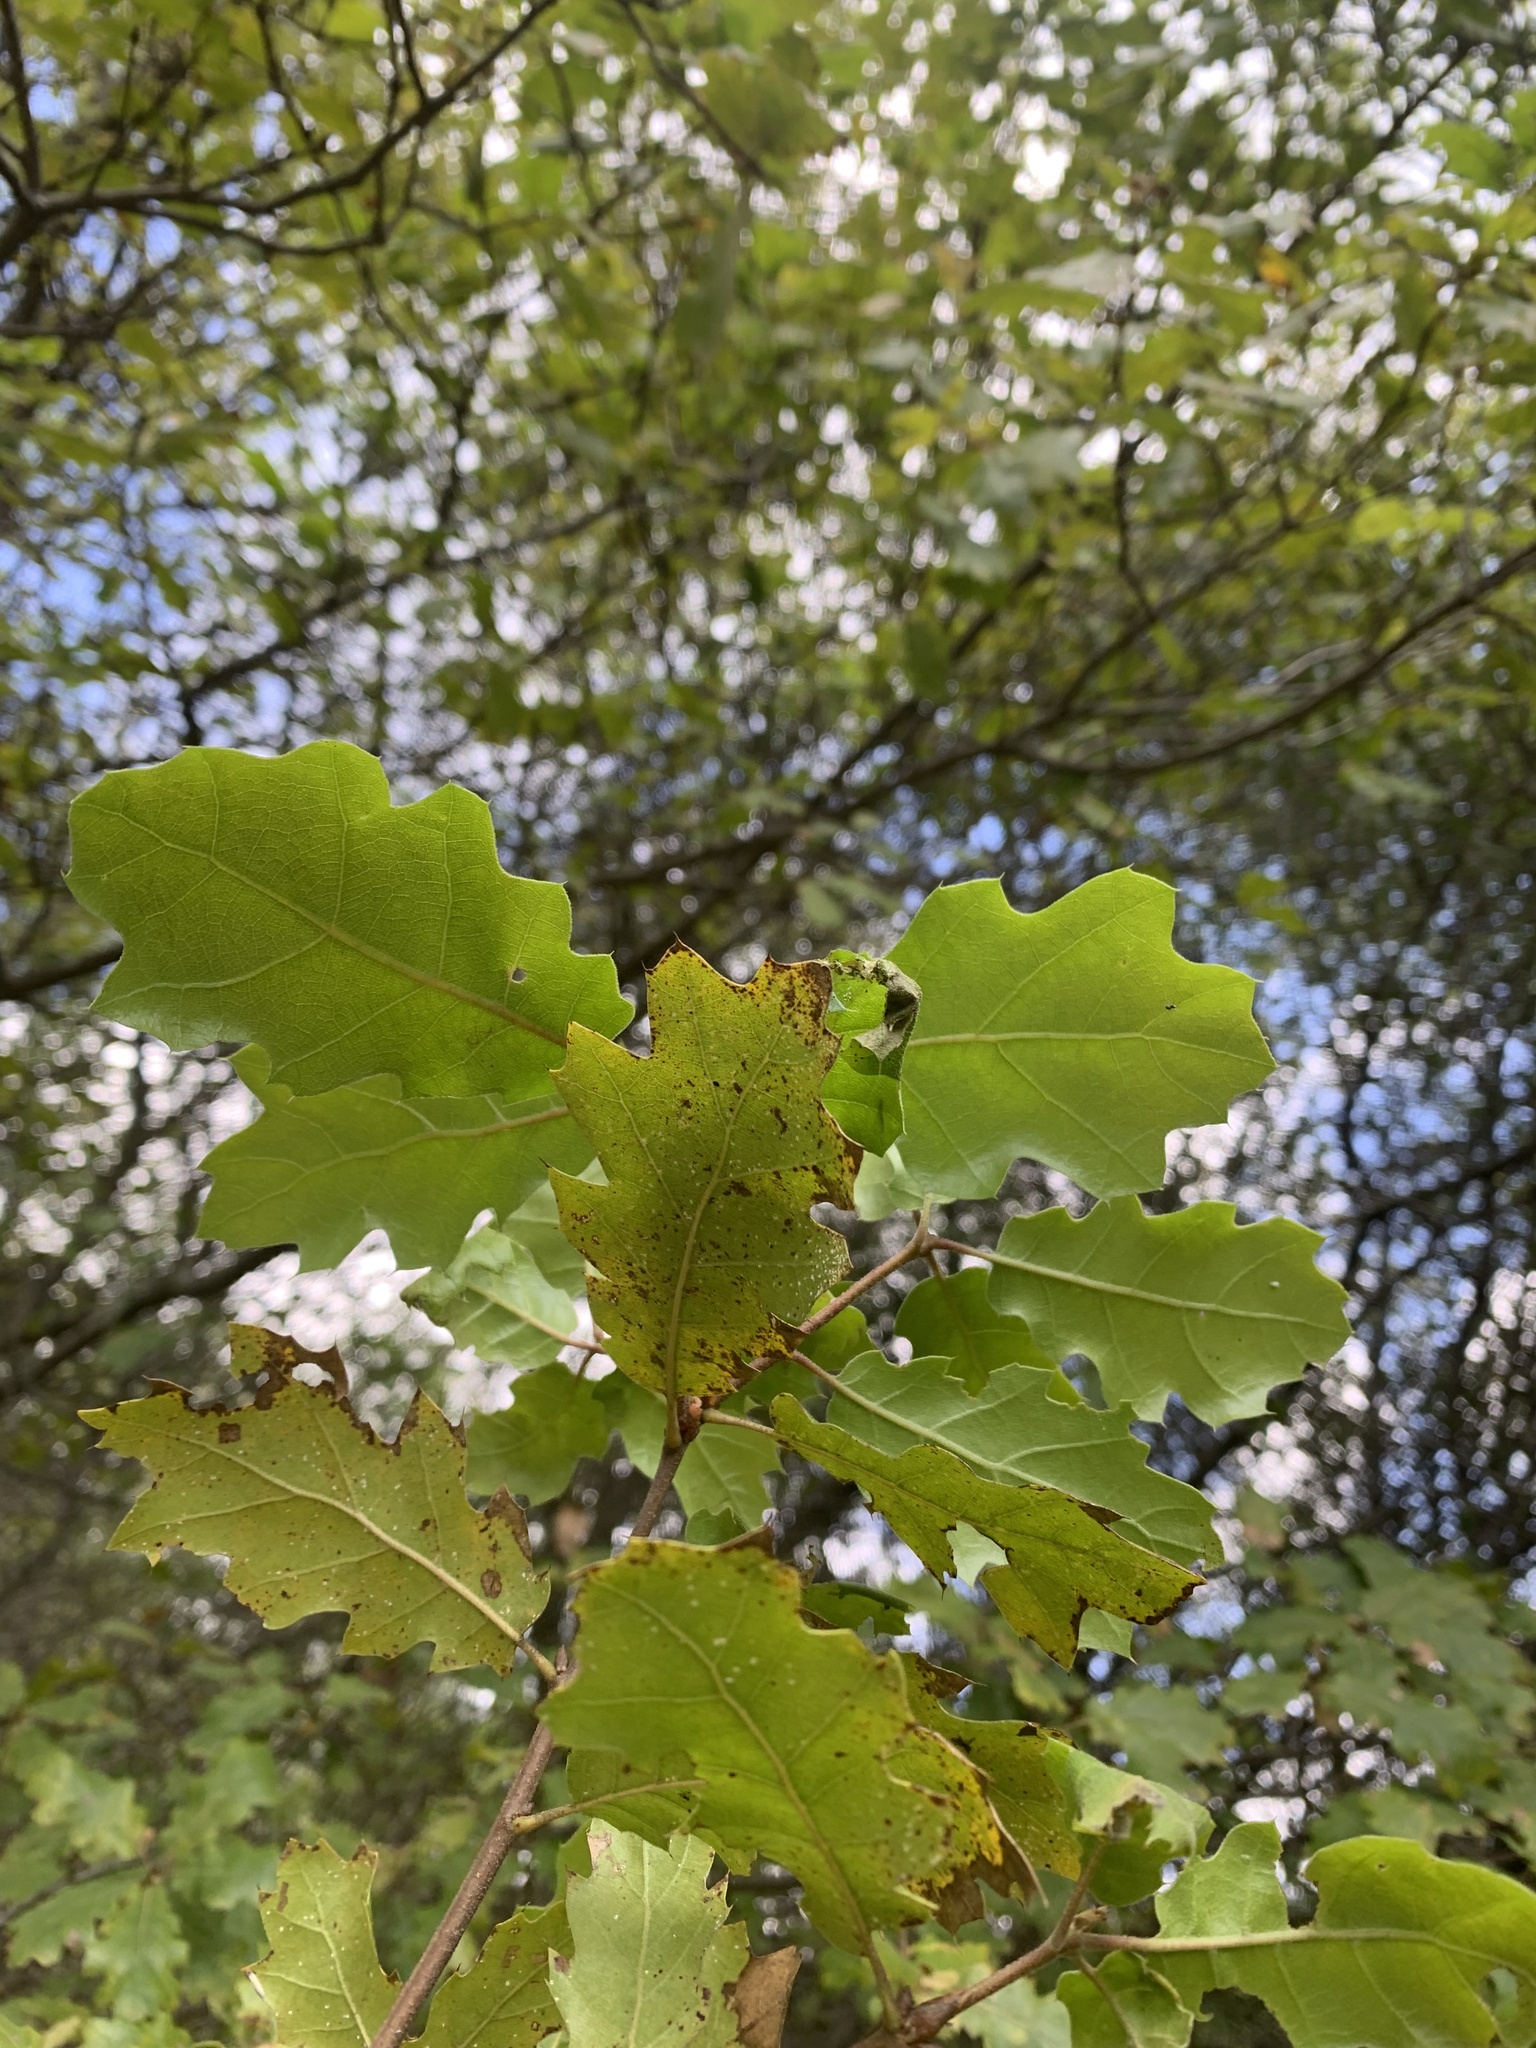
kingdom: Plantae
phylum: Tracheophyta
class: Magnoliopsida
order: Fagales
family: Fagaceae
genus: Quercus
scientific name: Quercus morehus
